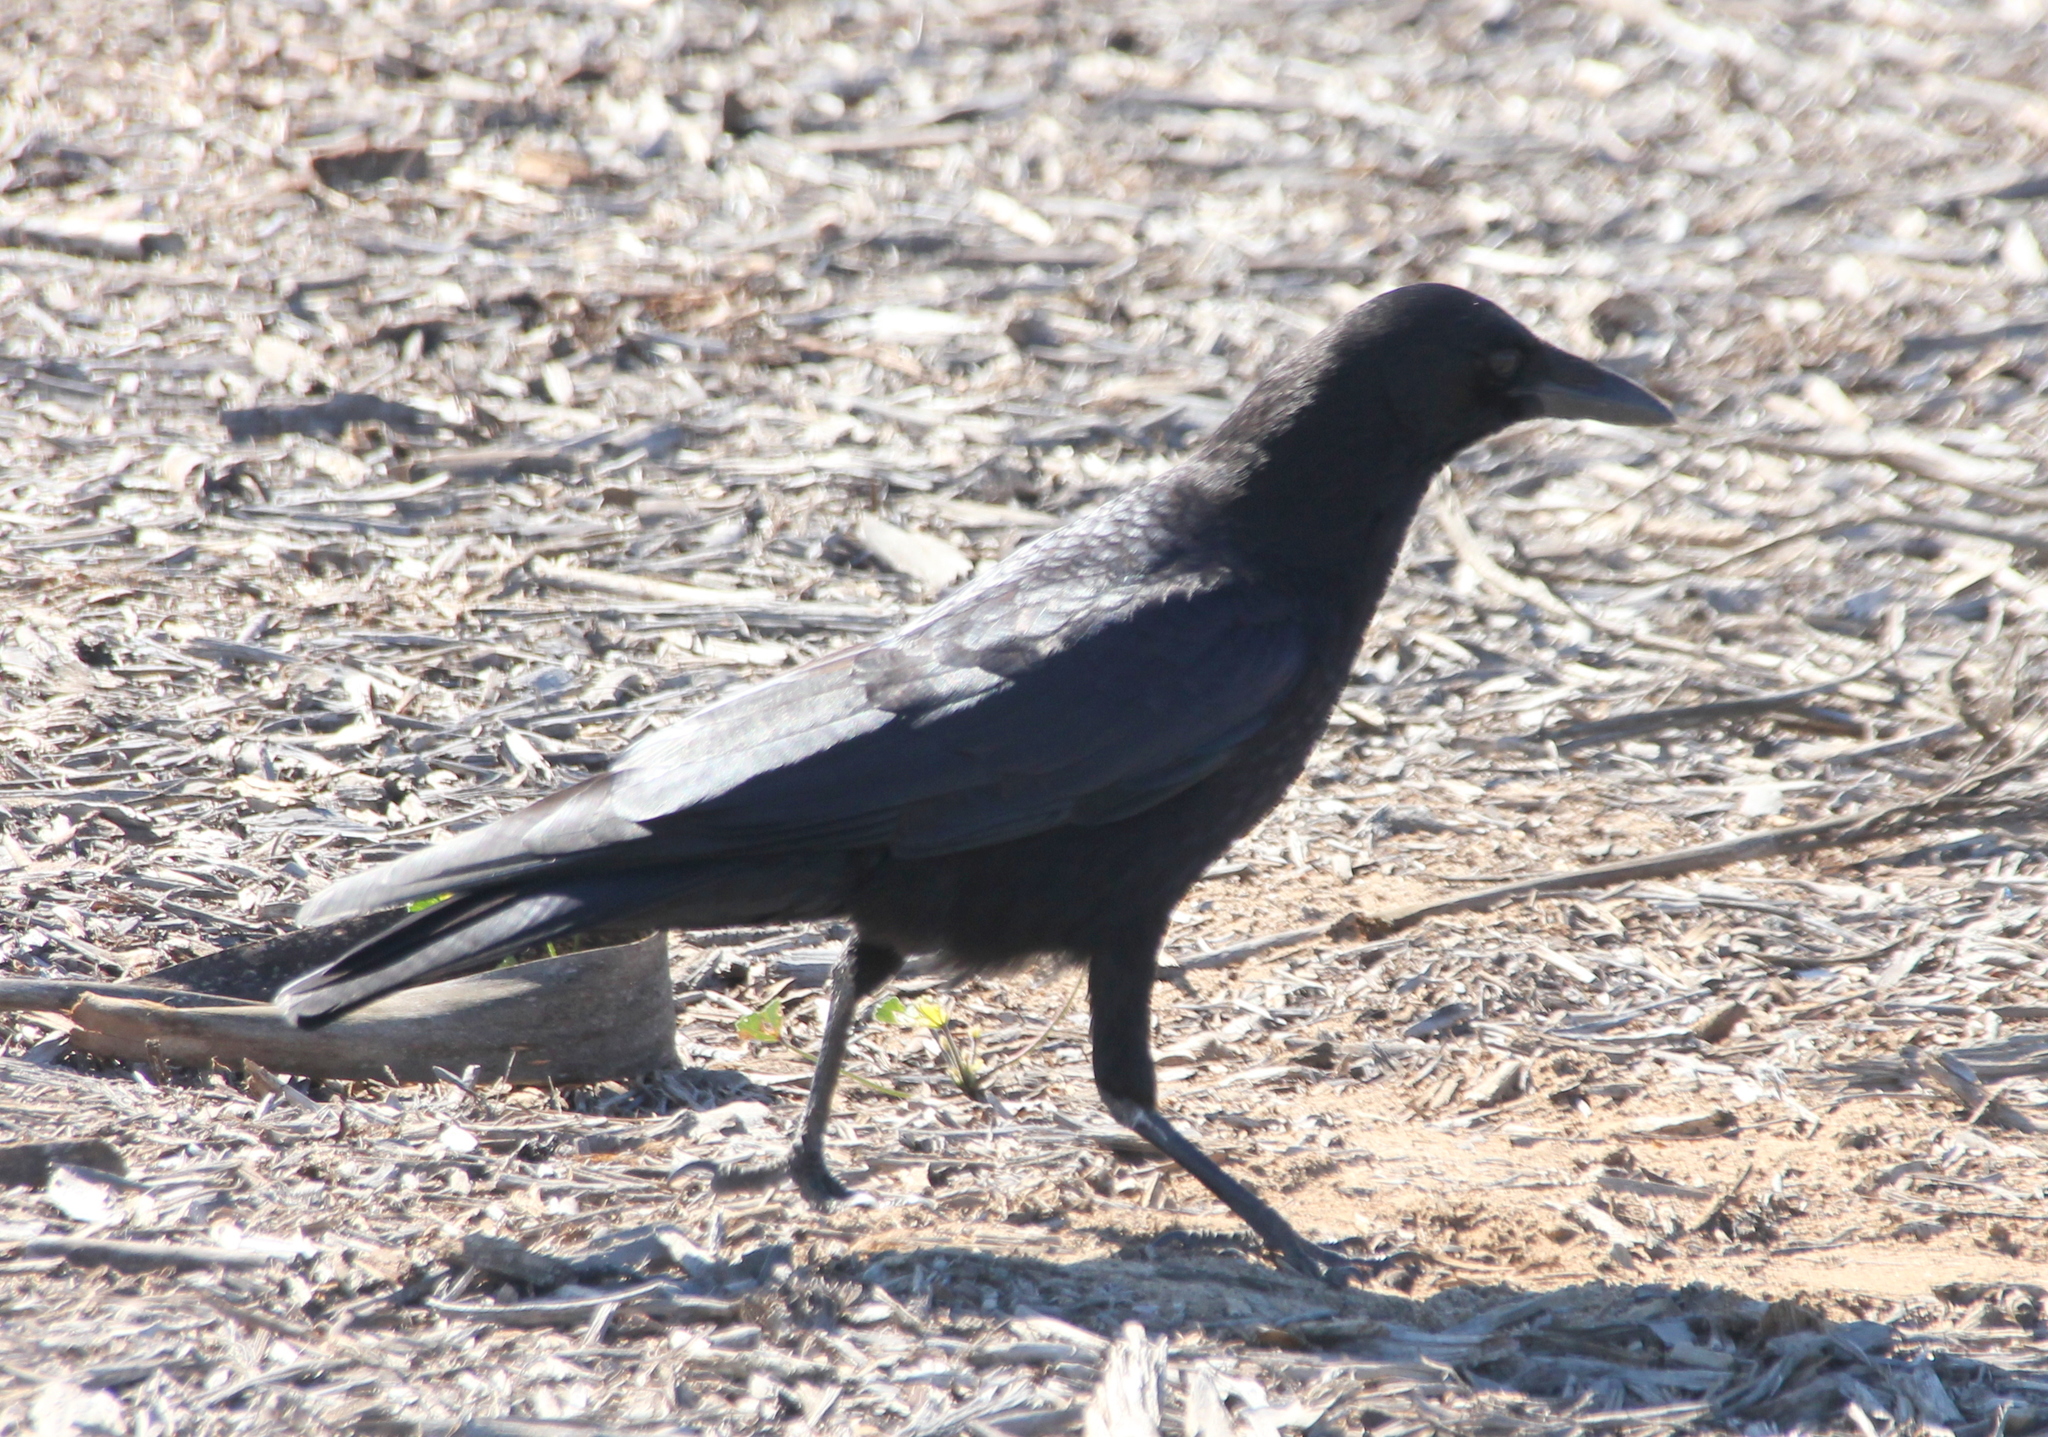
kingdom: Animalia
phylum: Chordata
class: Aves
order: Passeriformes
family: Corvidae
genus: Corvus
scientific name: Corvus brachyrhynchos
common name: American crow
